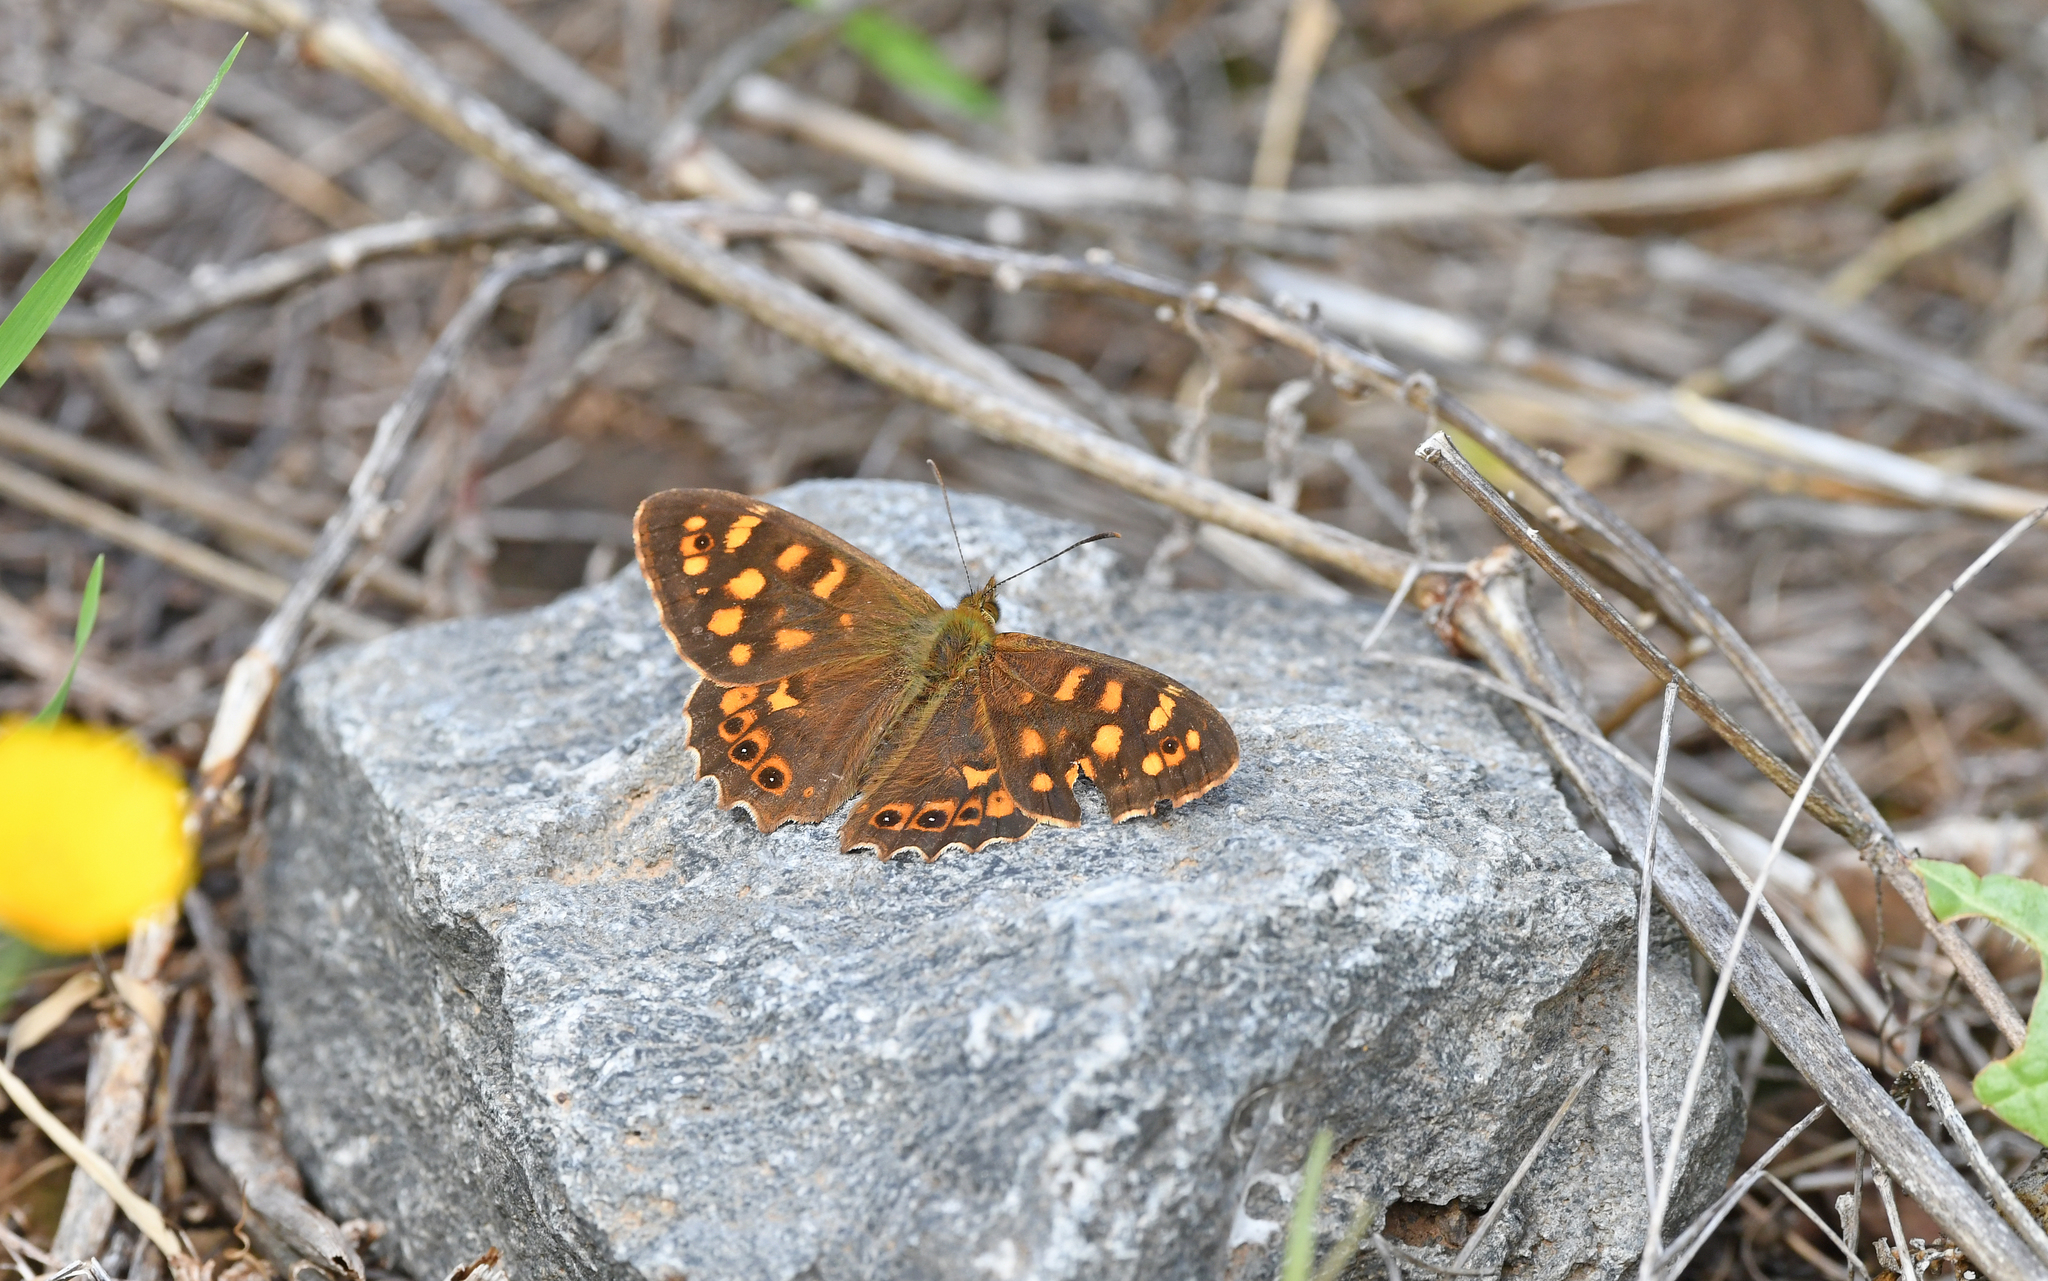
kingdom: Animalia
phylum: Arthropoda
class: Insecta
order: Lepidoptera
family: Nymphalidae
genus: Pararge
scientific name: Pararge aegeria
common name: Speckled wood
